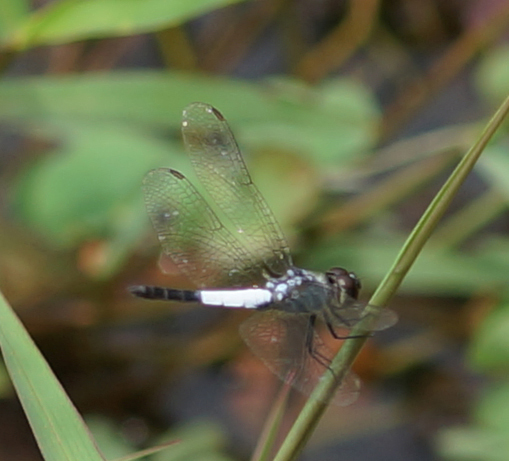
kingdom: Animalia
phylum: Arthropoda
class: Insecta
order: Odonata
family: Libellulidae
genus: Brachydiplax
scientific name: Brachydiplax farinosa
